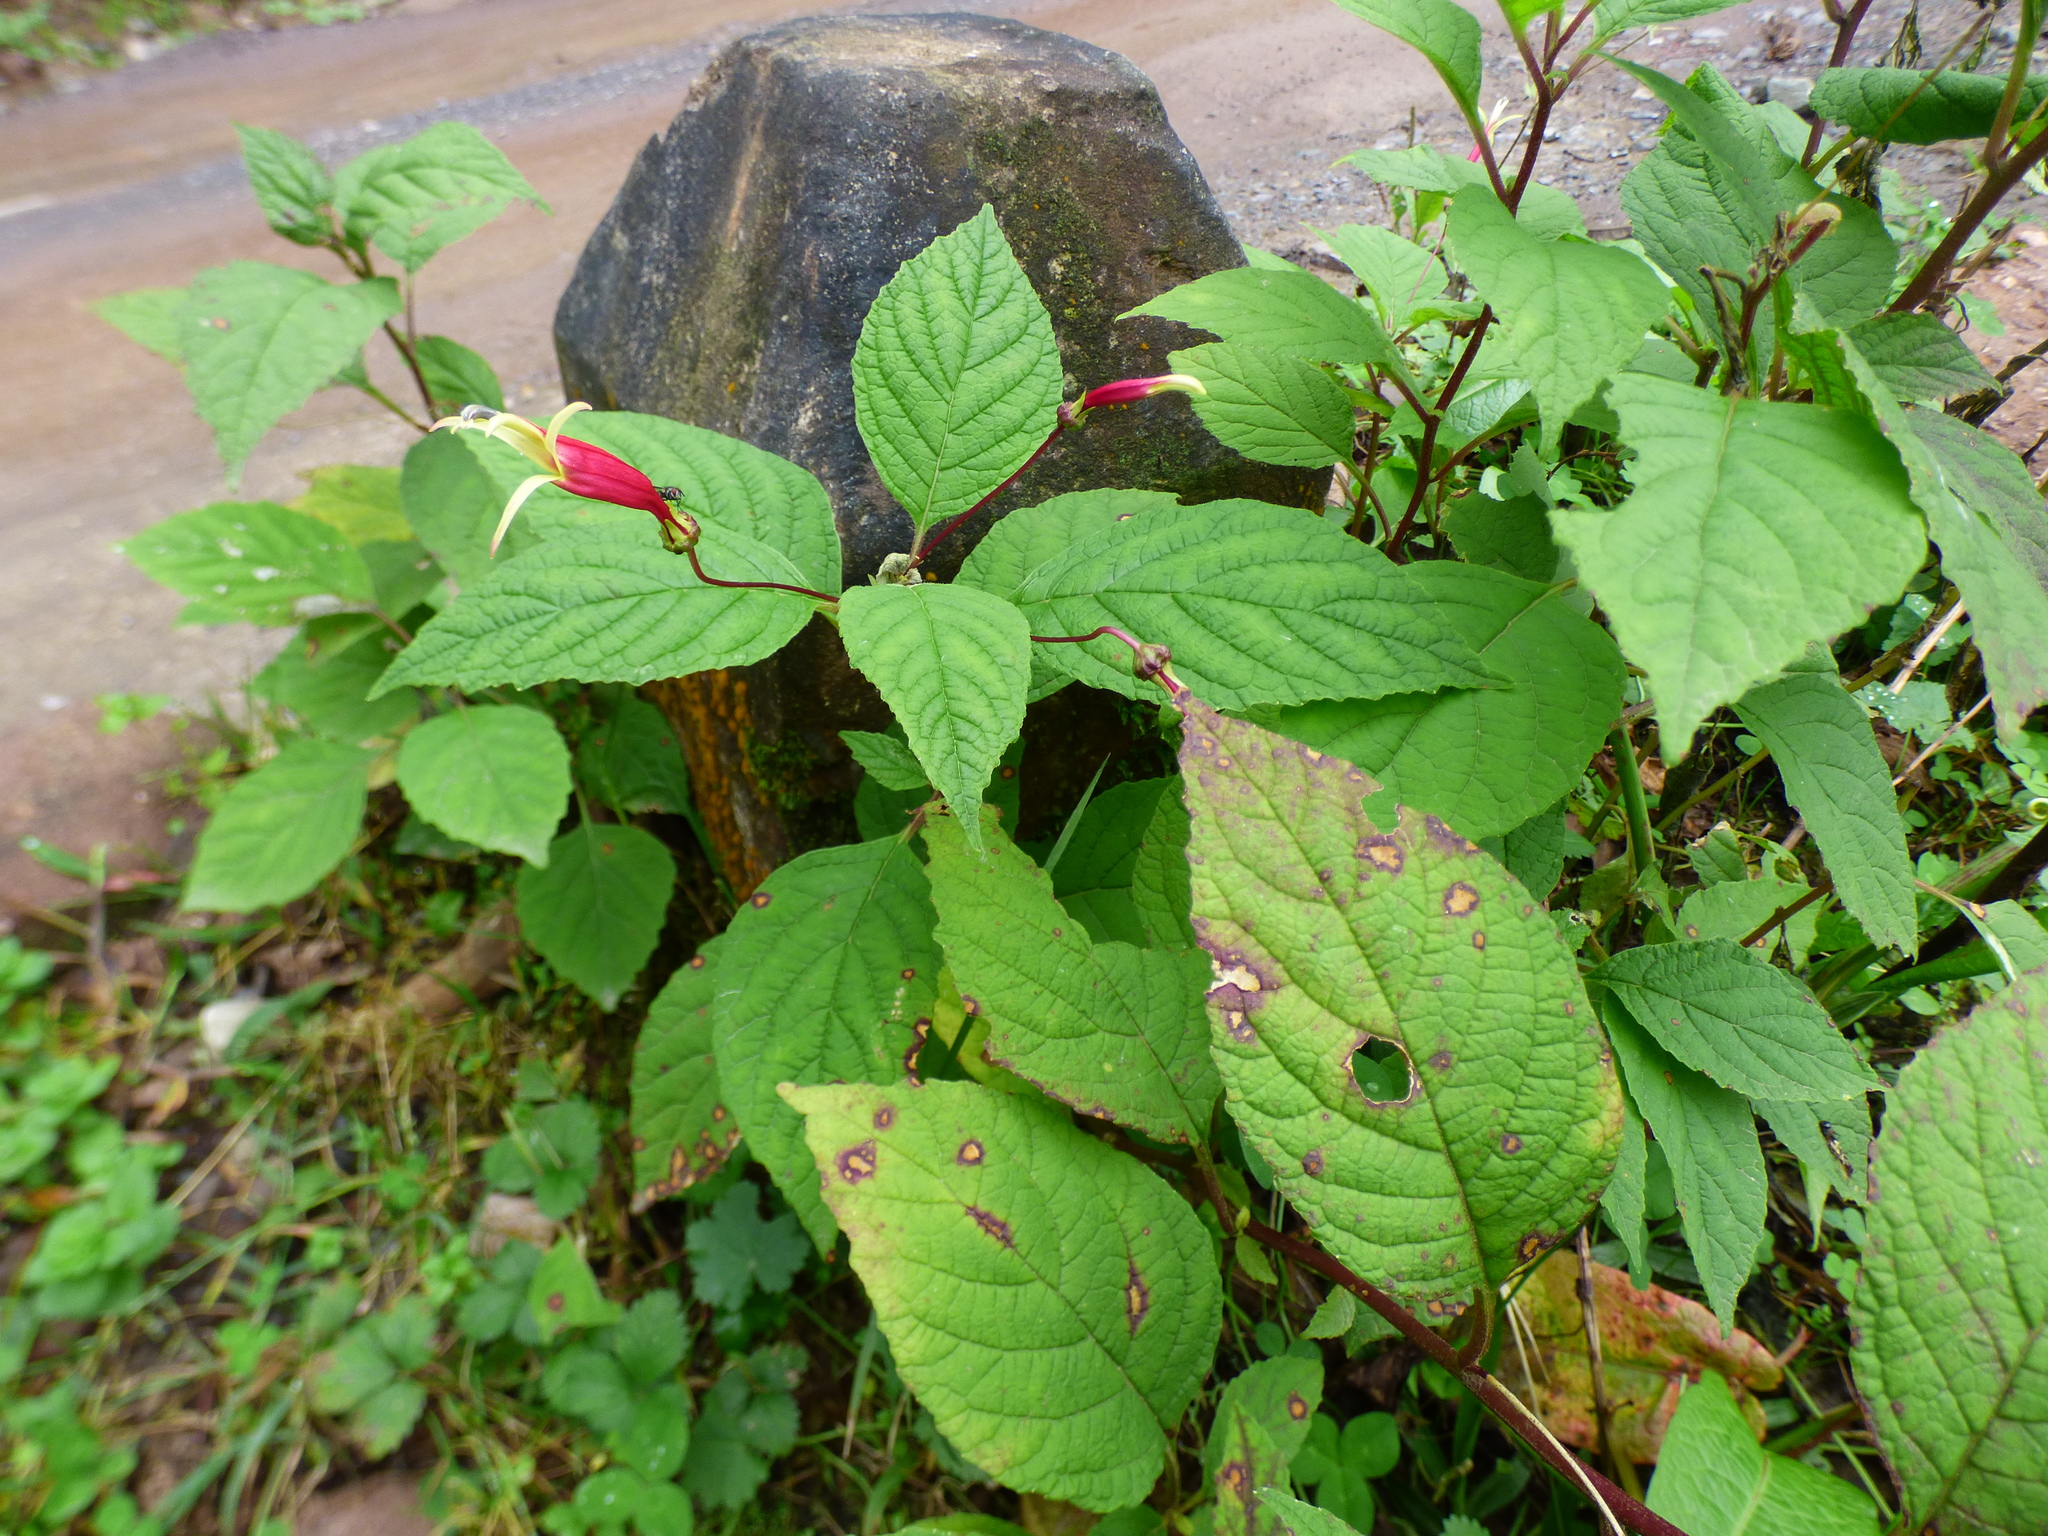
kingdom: Plantae
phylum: Tracheophyta
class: Magnoliopsida
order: Asterales
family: Campanulaceae
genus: Siphocampylus
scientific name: Siphocampylus orbignianus
